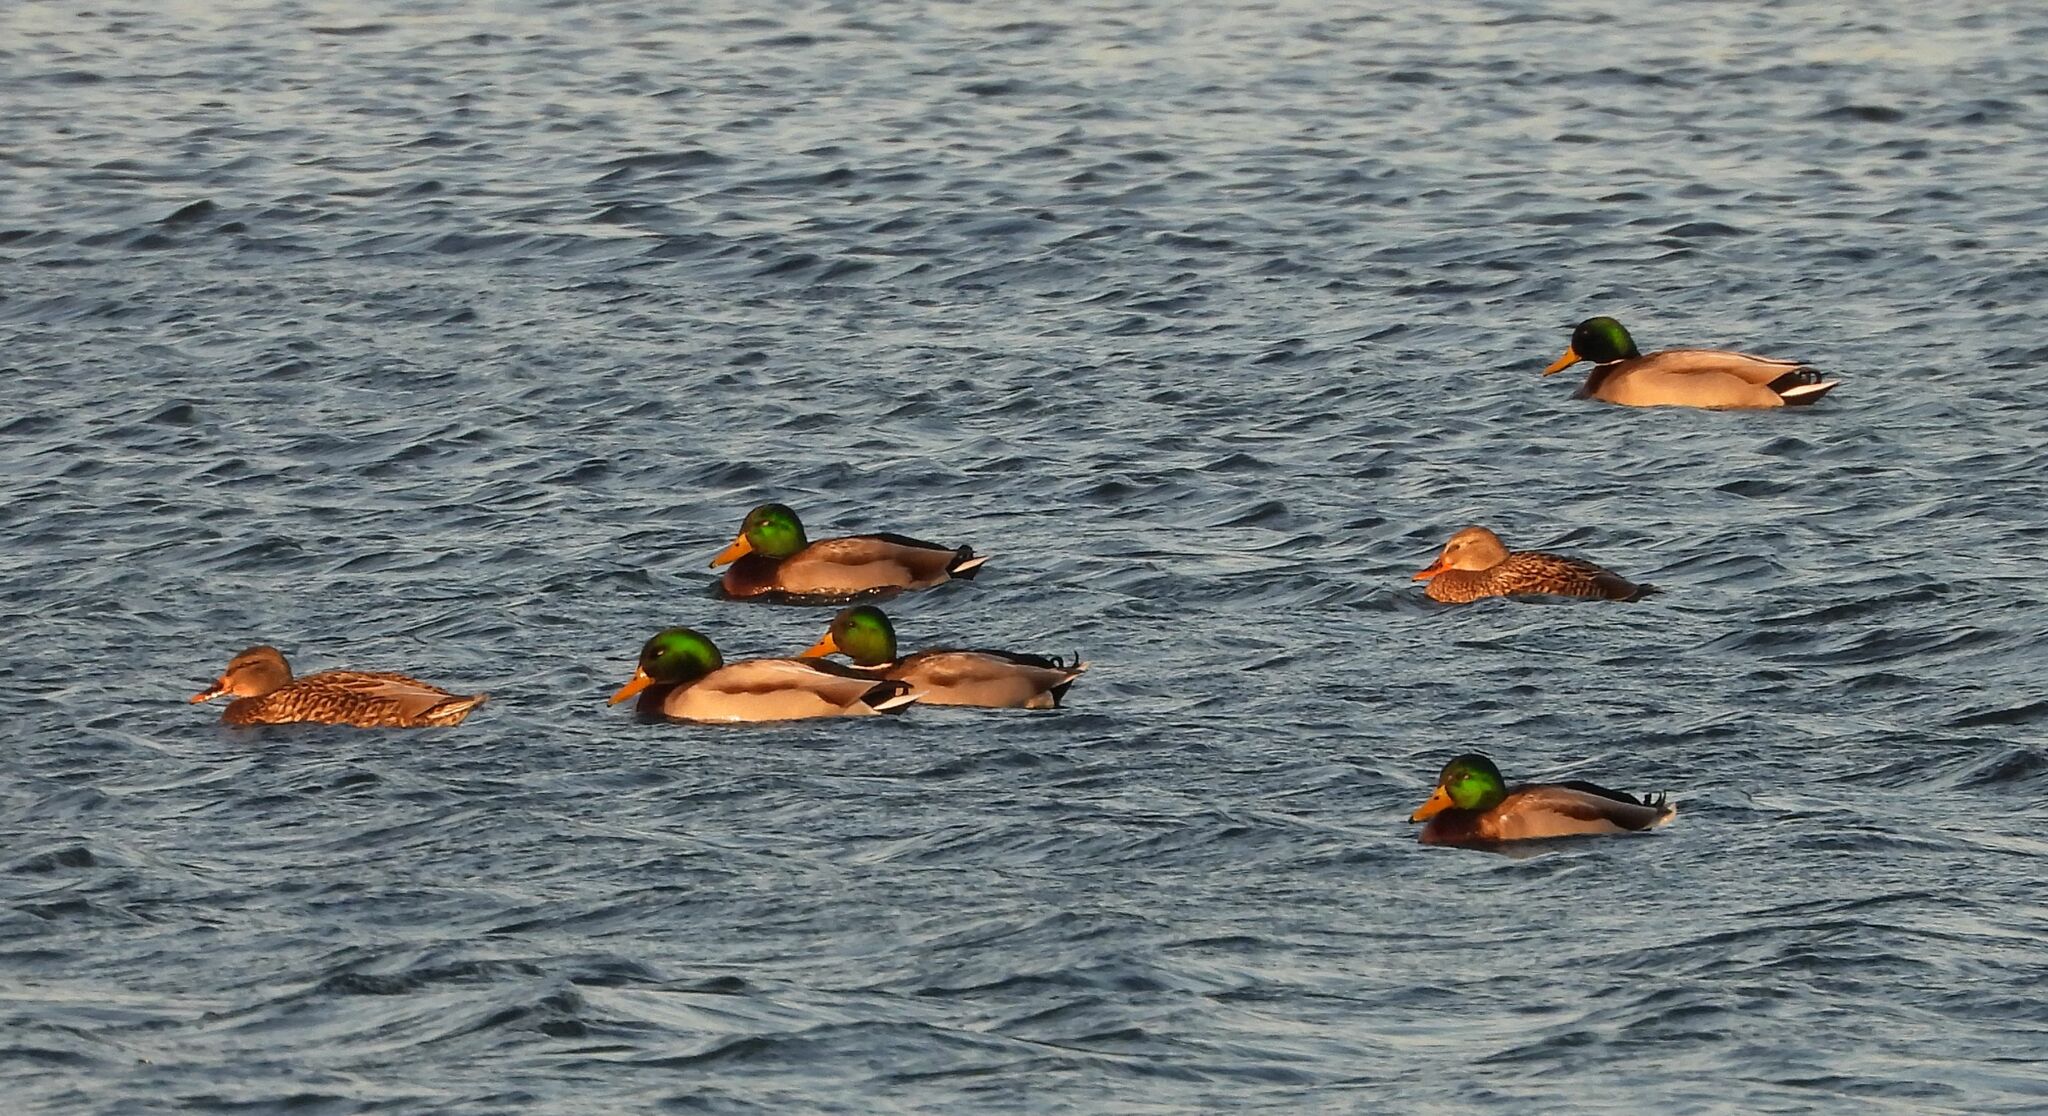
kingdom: Animalia
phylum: Chordata
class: Aves
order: Anseriformes
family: Anatidae
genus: Anas
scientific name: Anas platyrhynchos
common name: Mallard
